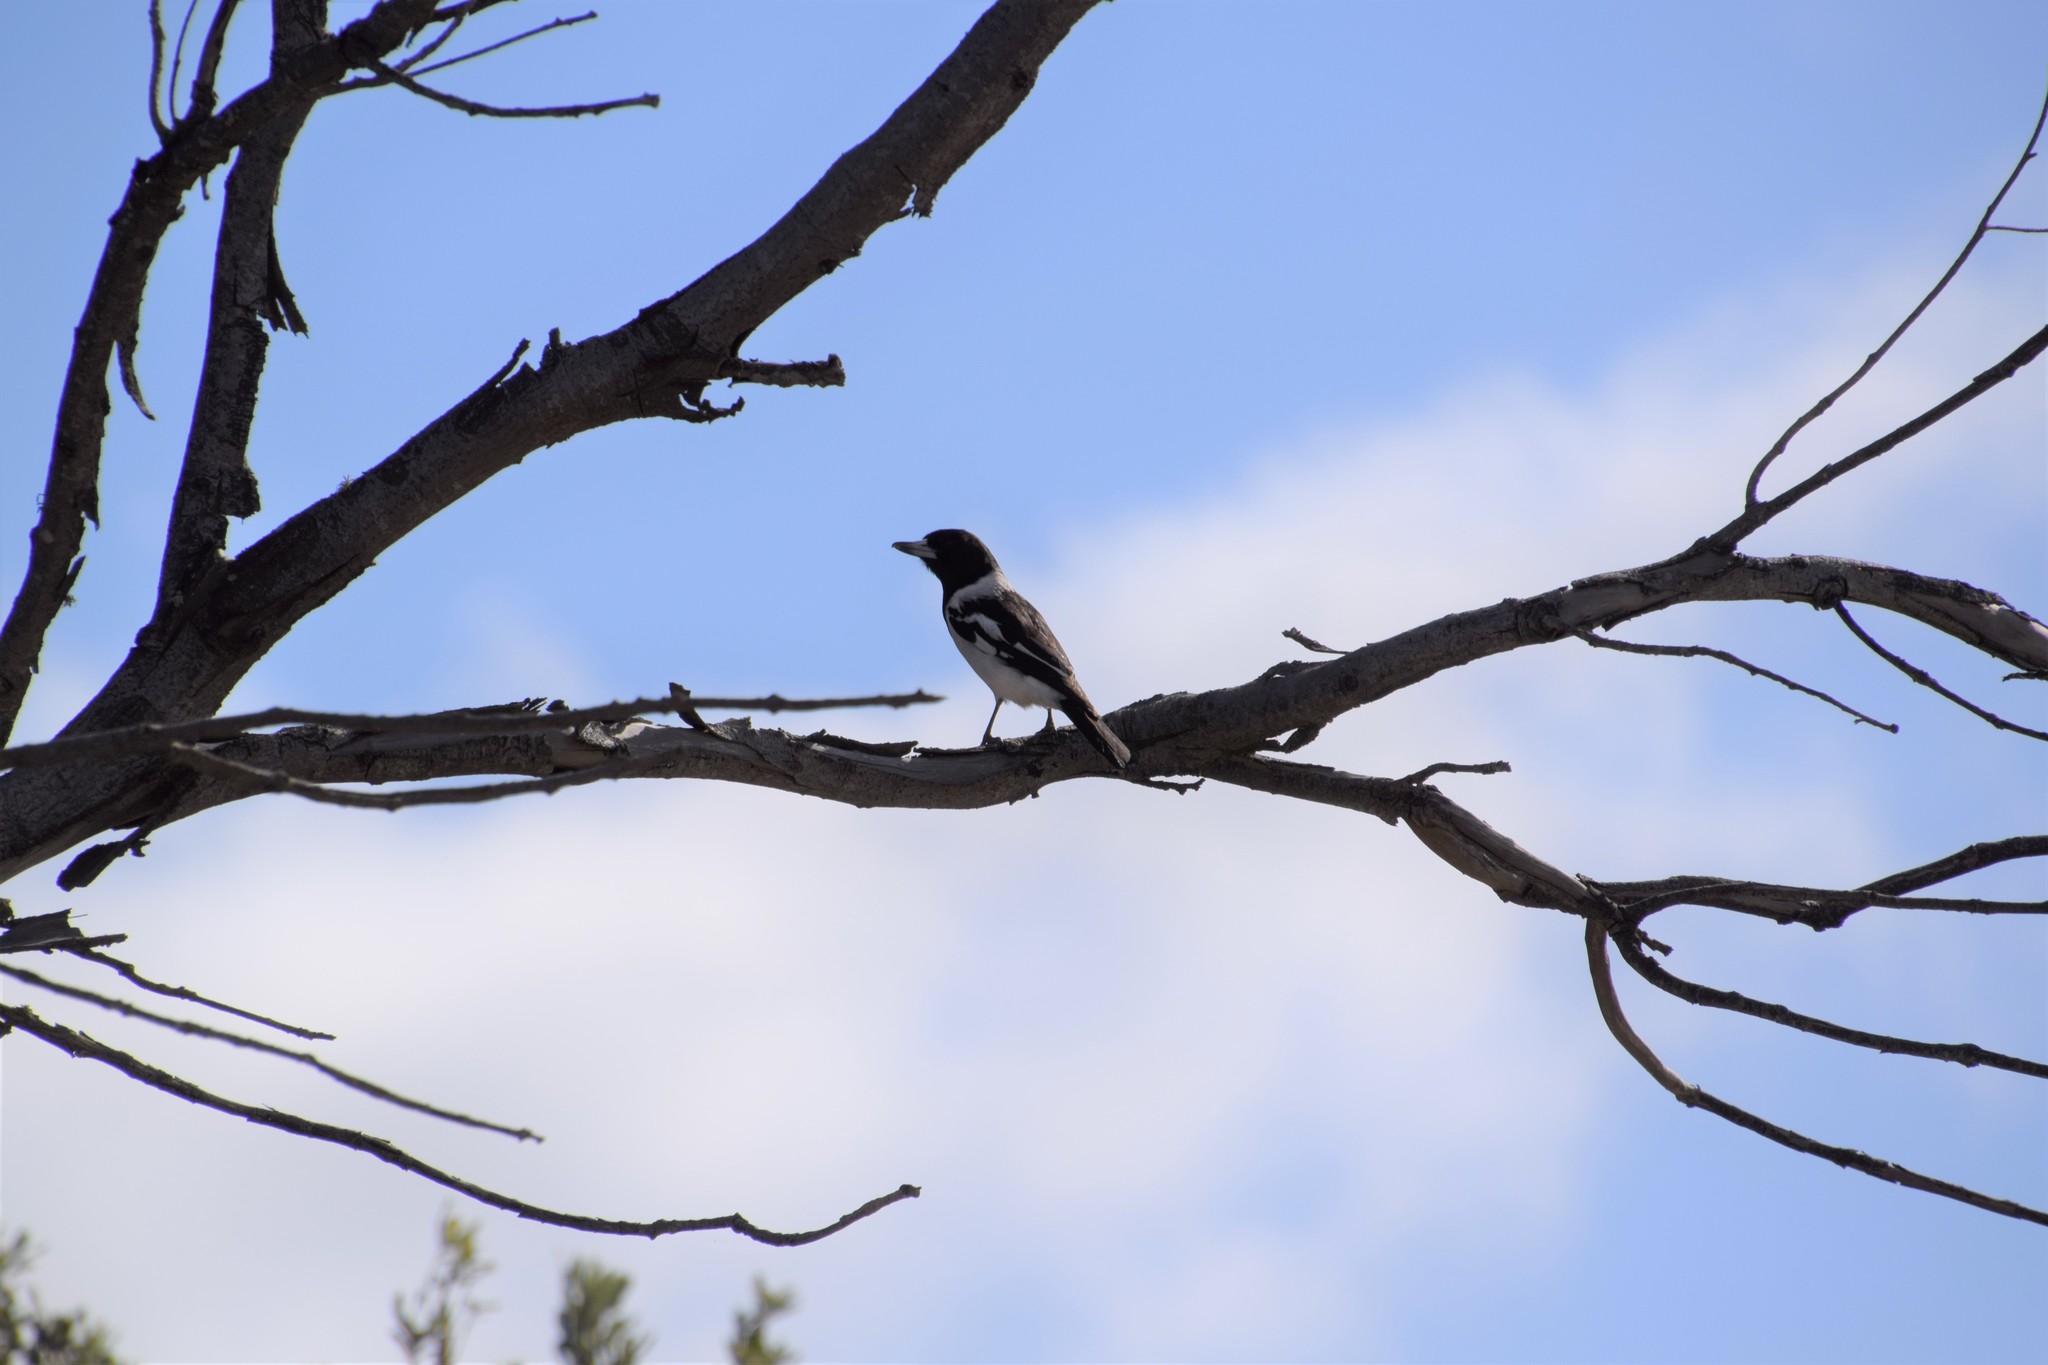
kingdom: Animalia
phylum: Chordata
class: Aves
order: Passeriformes
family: Cracticidae
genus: Cracticus
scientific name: Cracticus nigrogularis
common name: Pied butcherbird
